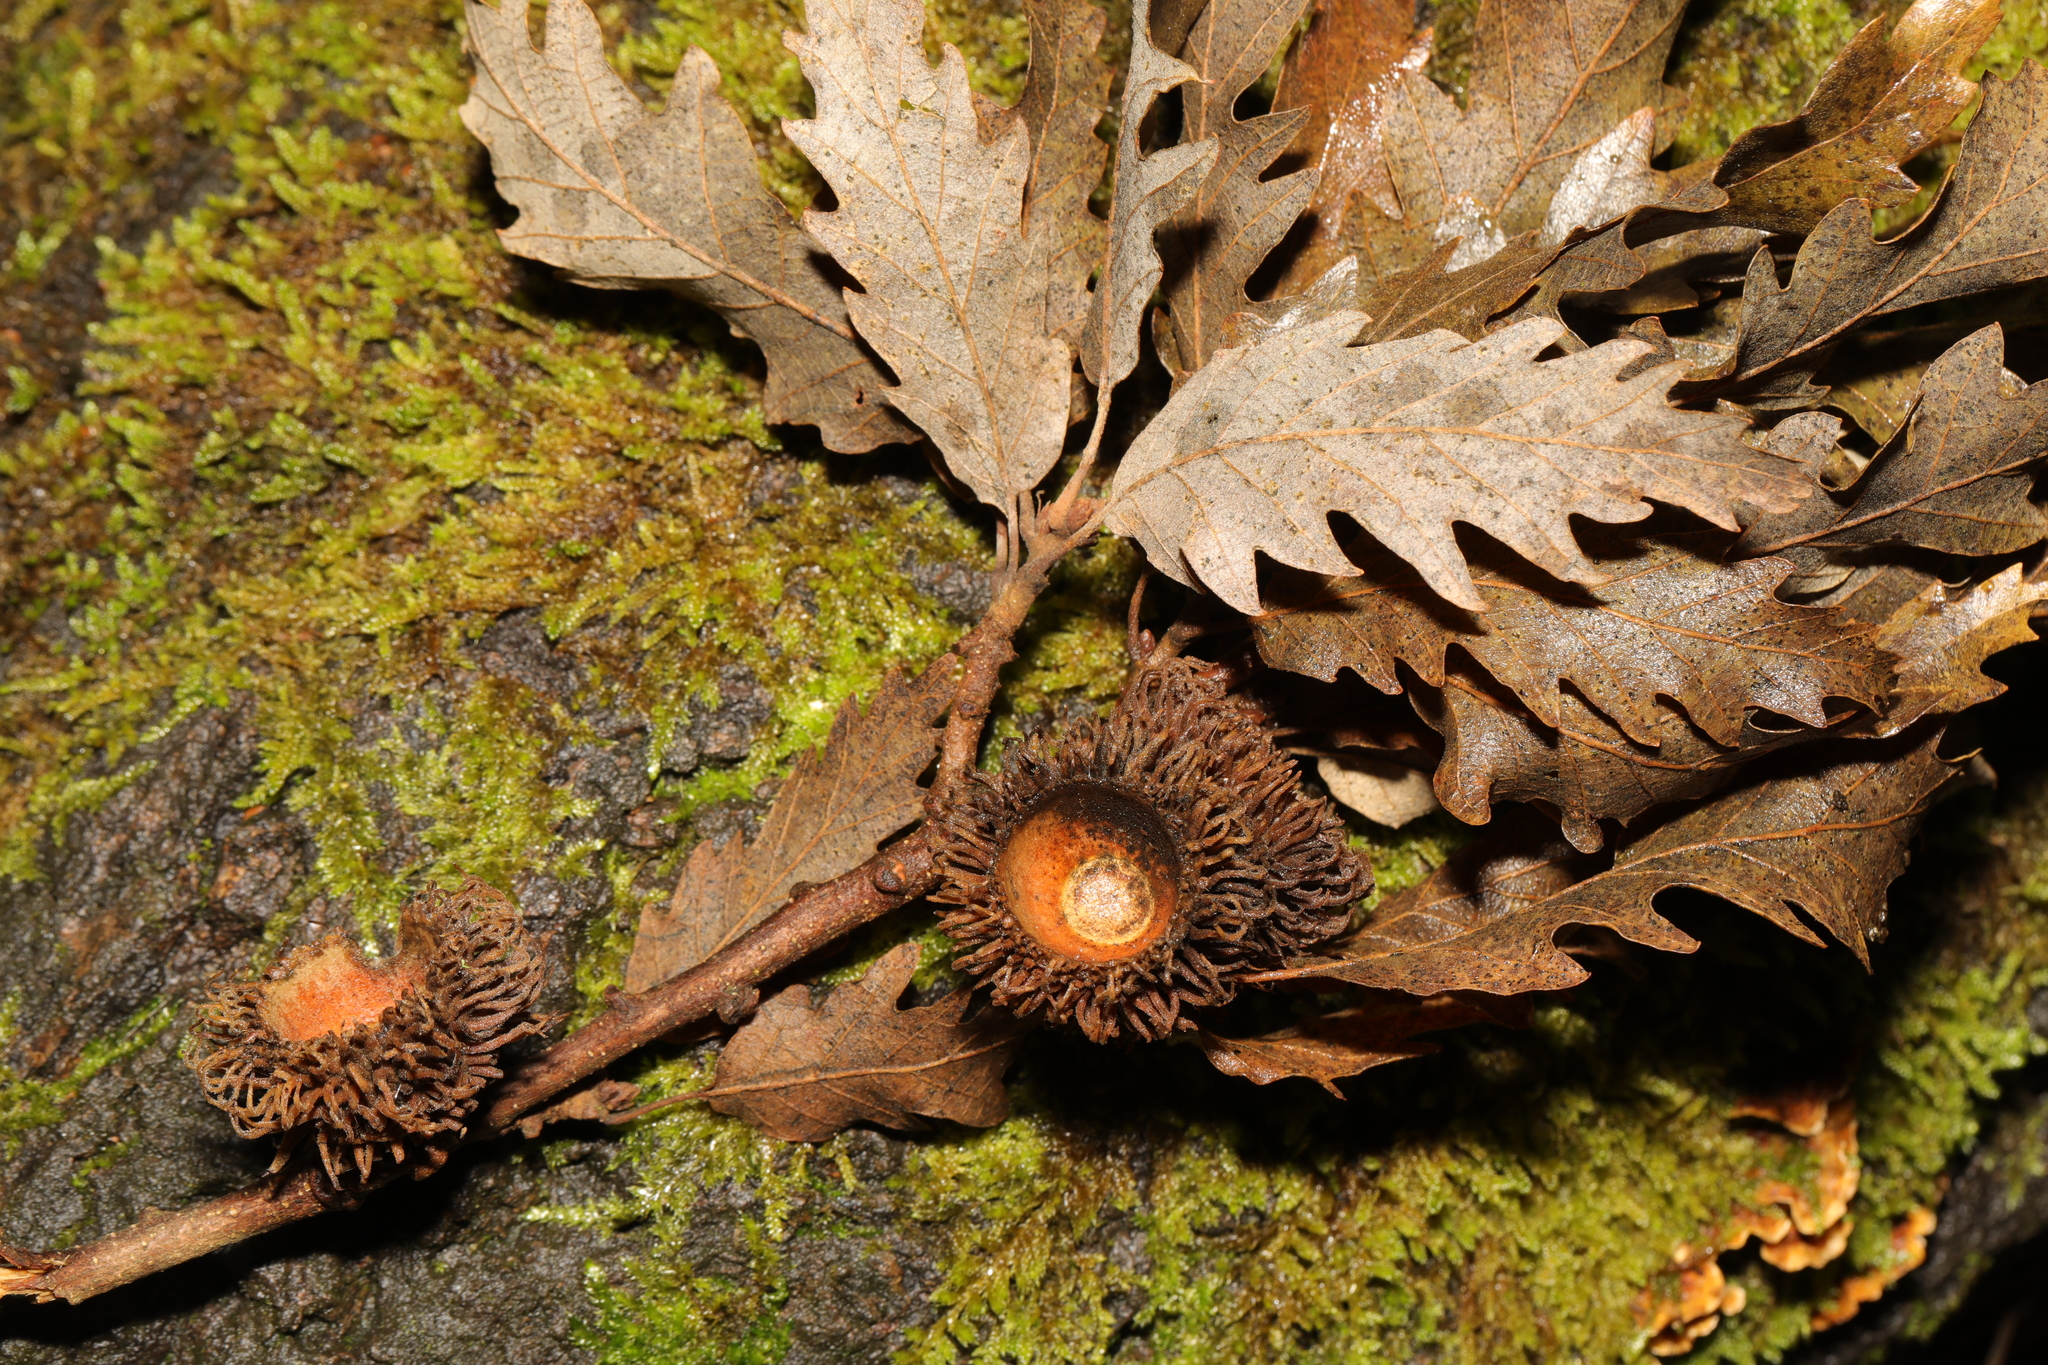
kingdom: Plantae
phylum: Tracheophyta
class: Magnoliopsida
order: Fagales
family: Fagaceae
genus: Quercus
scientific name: Quercus cerris
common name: Turkey oak
